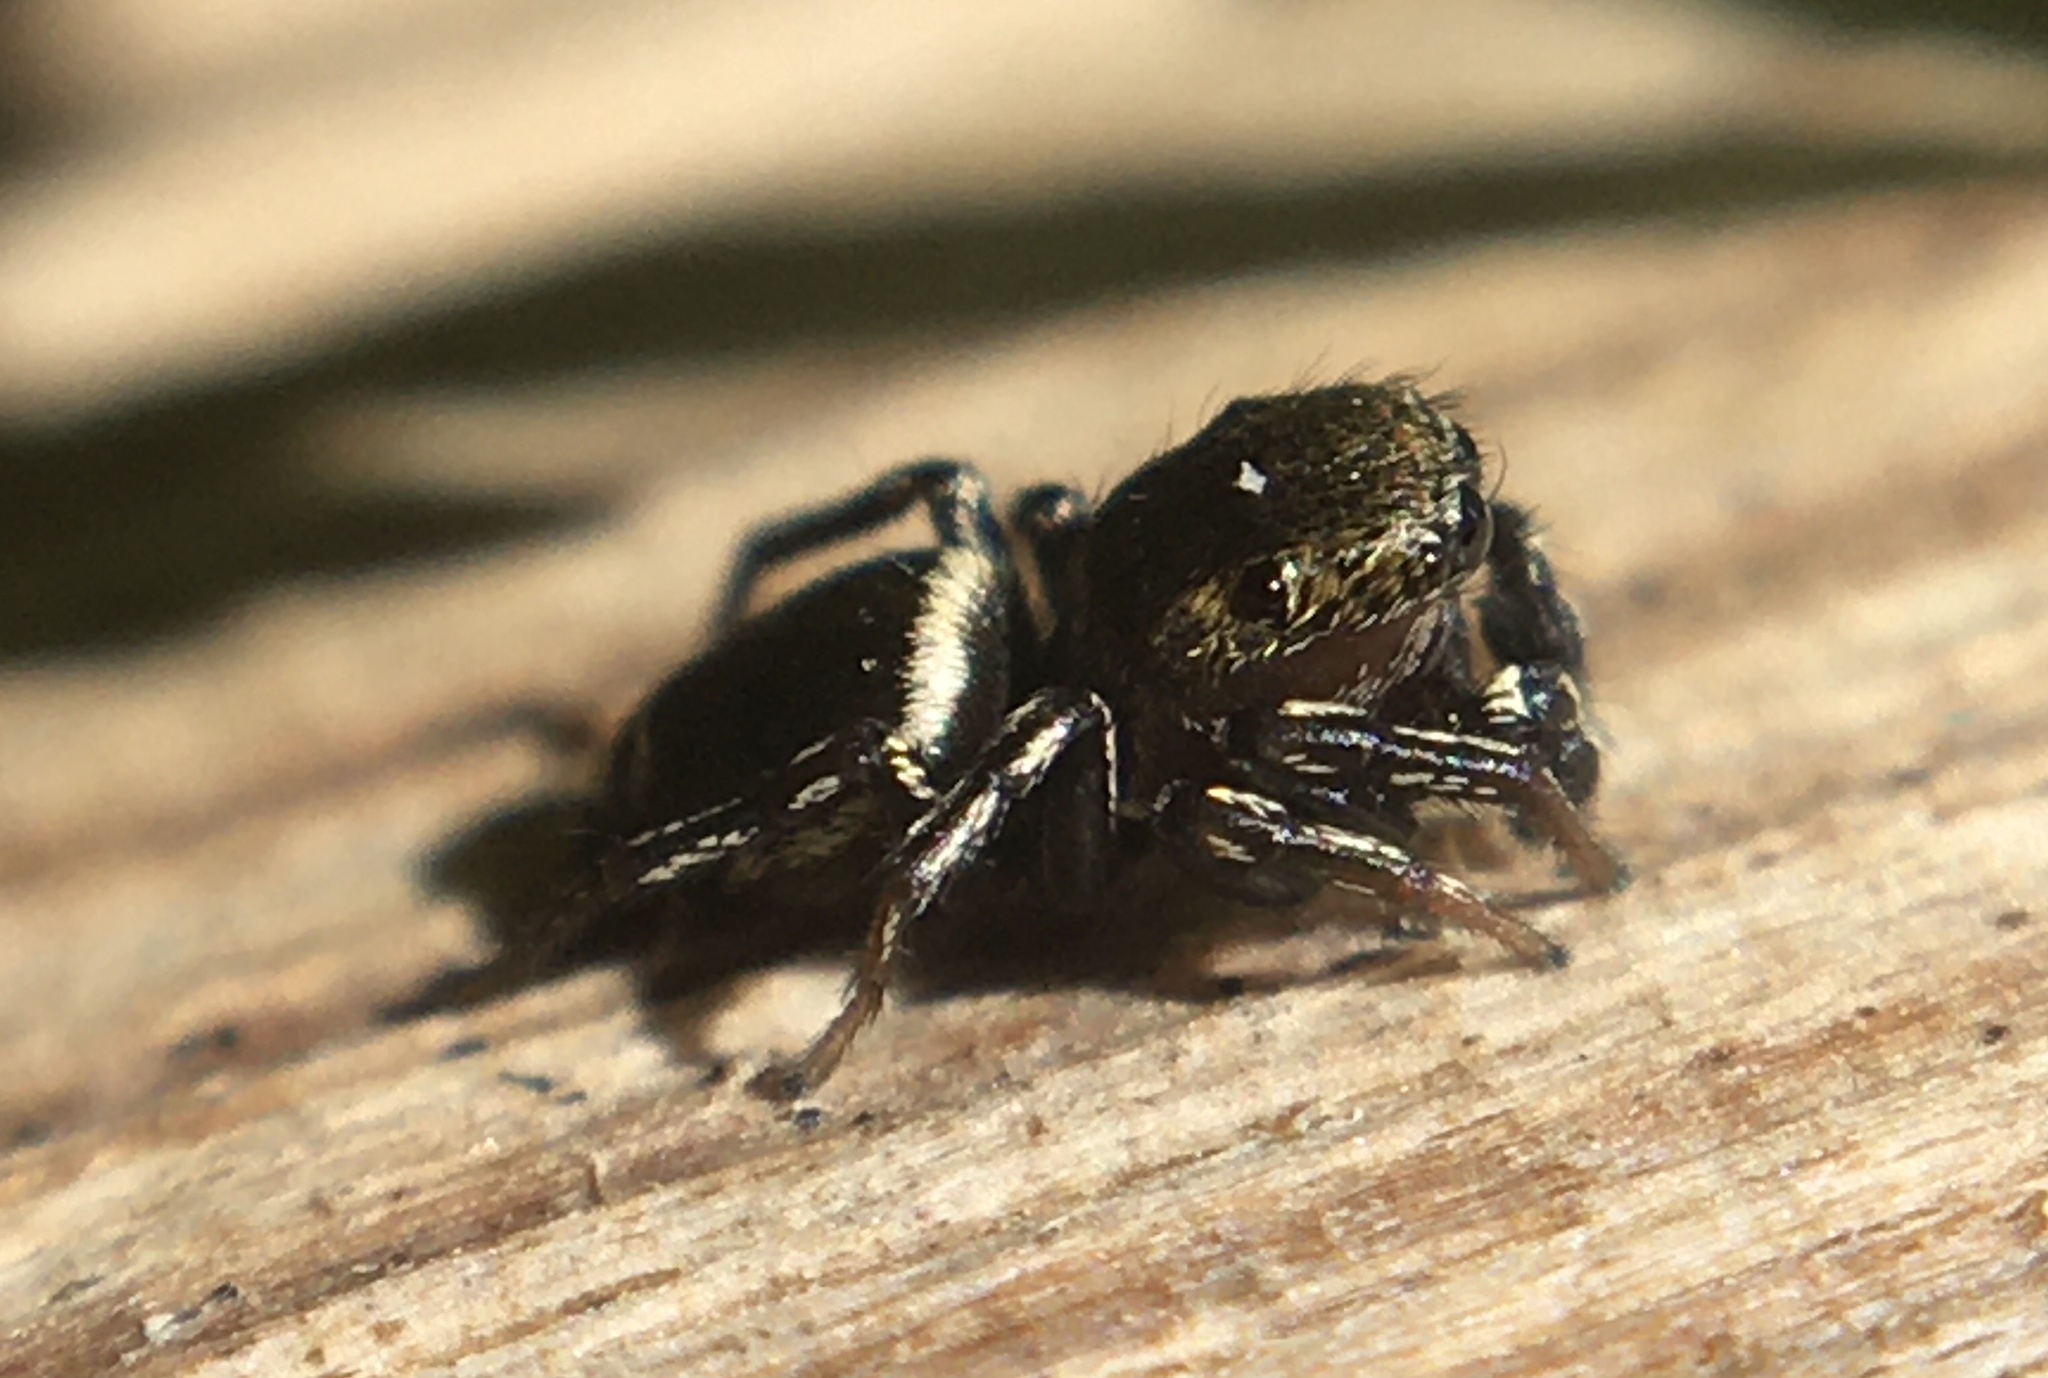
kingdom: Animalia
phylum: Arthropoda
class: Arachnida
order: Araneae
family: Salticidae
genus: Heliophanus
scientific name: Heliophanus tribulosus
